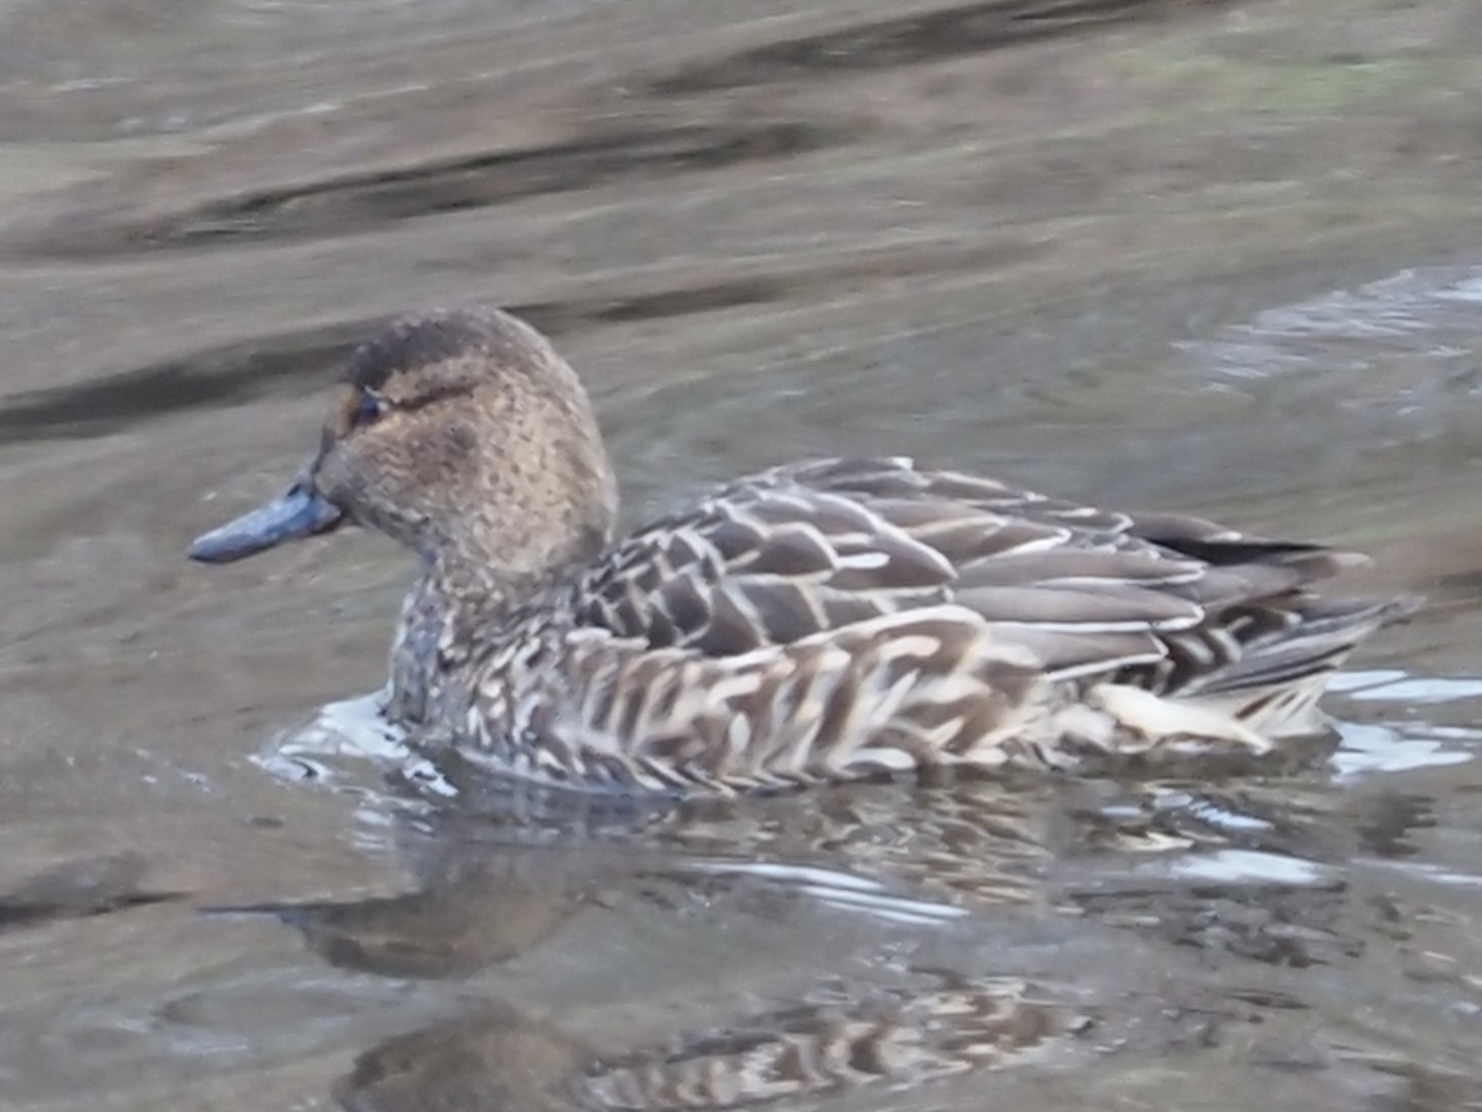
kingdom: Animalia
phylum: Chordata
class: Aves
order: Anseriformes
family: Anatidae
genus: Anas
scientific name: Anas crecca
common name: Eurasian teal
